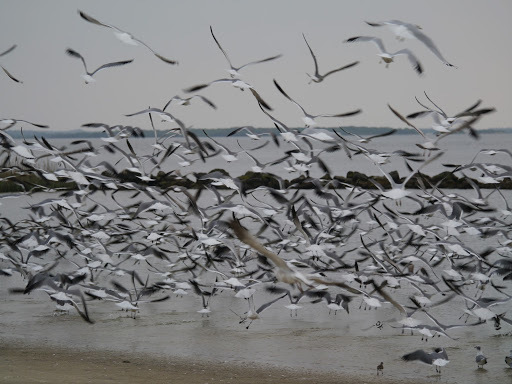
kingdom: Animalia
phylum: Chordata
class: Aves
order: Charadriiformes
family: Laridae
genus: Leucophaeus
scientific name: Leucophaeus atricilla
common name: Laughing gull
